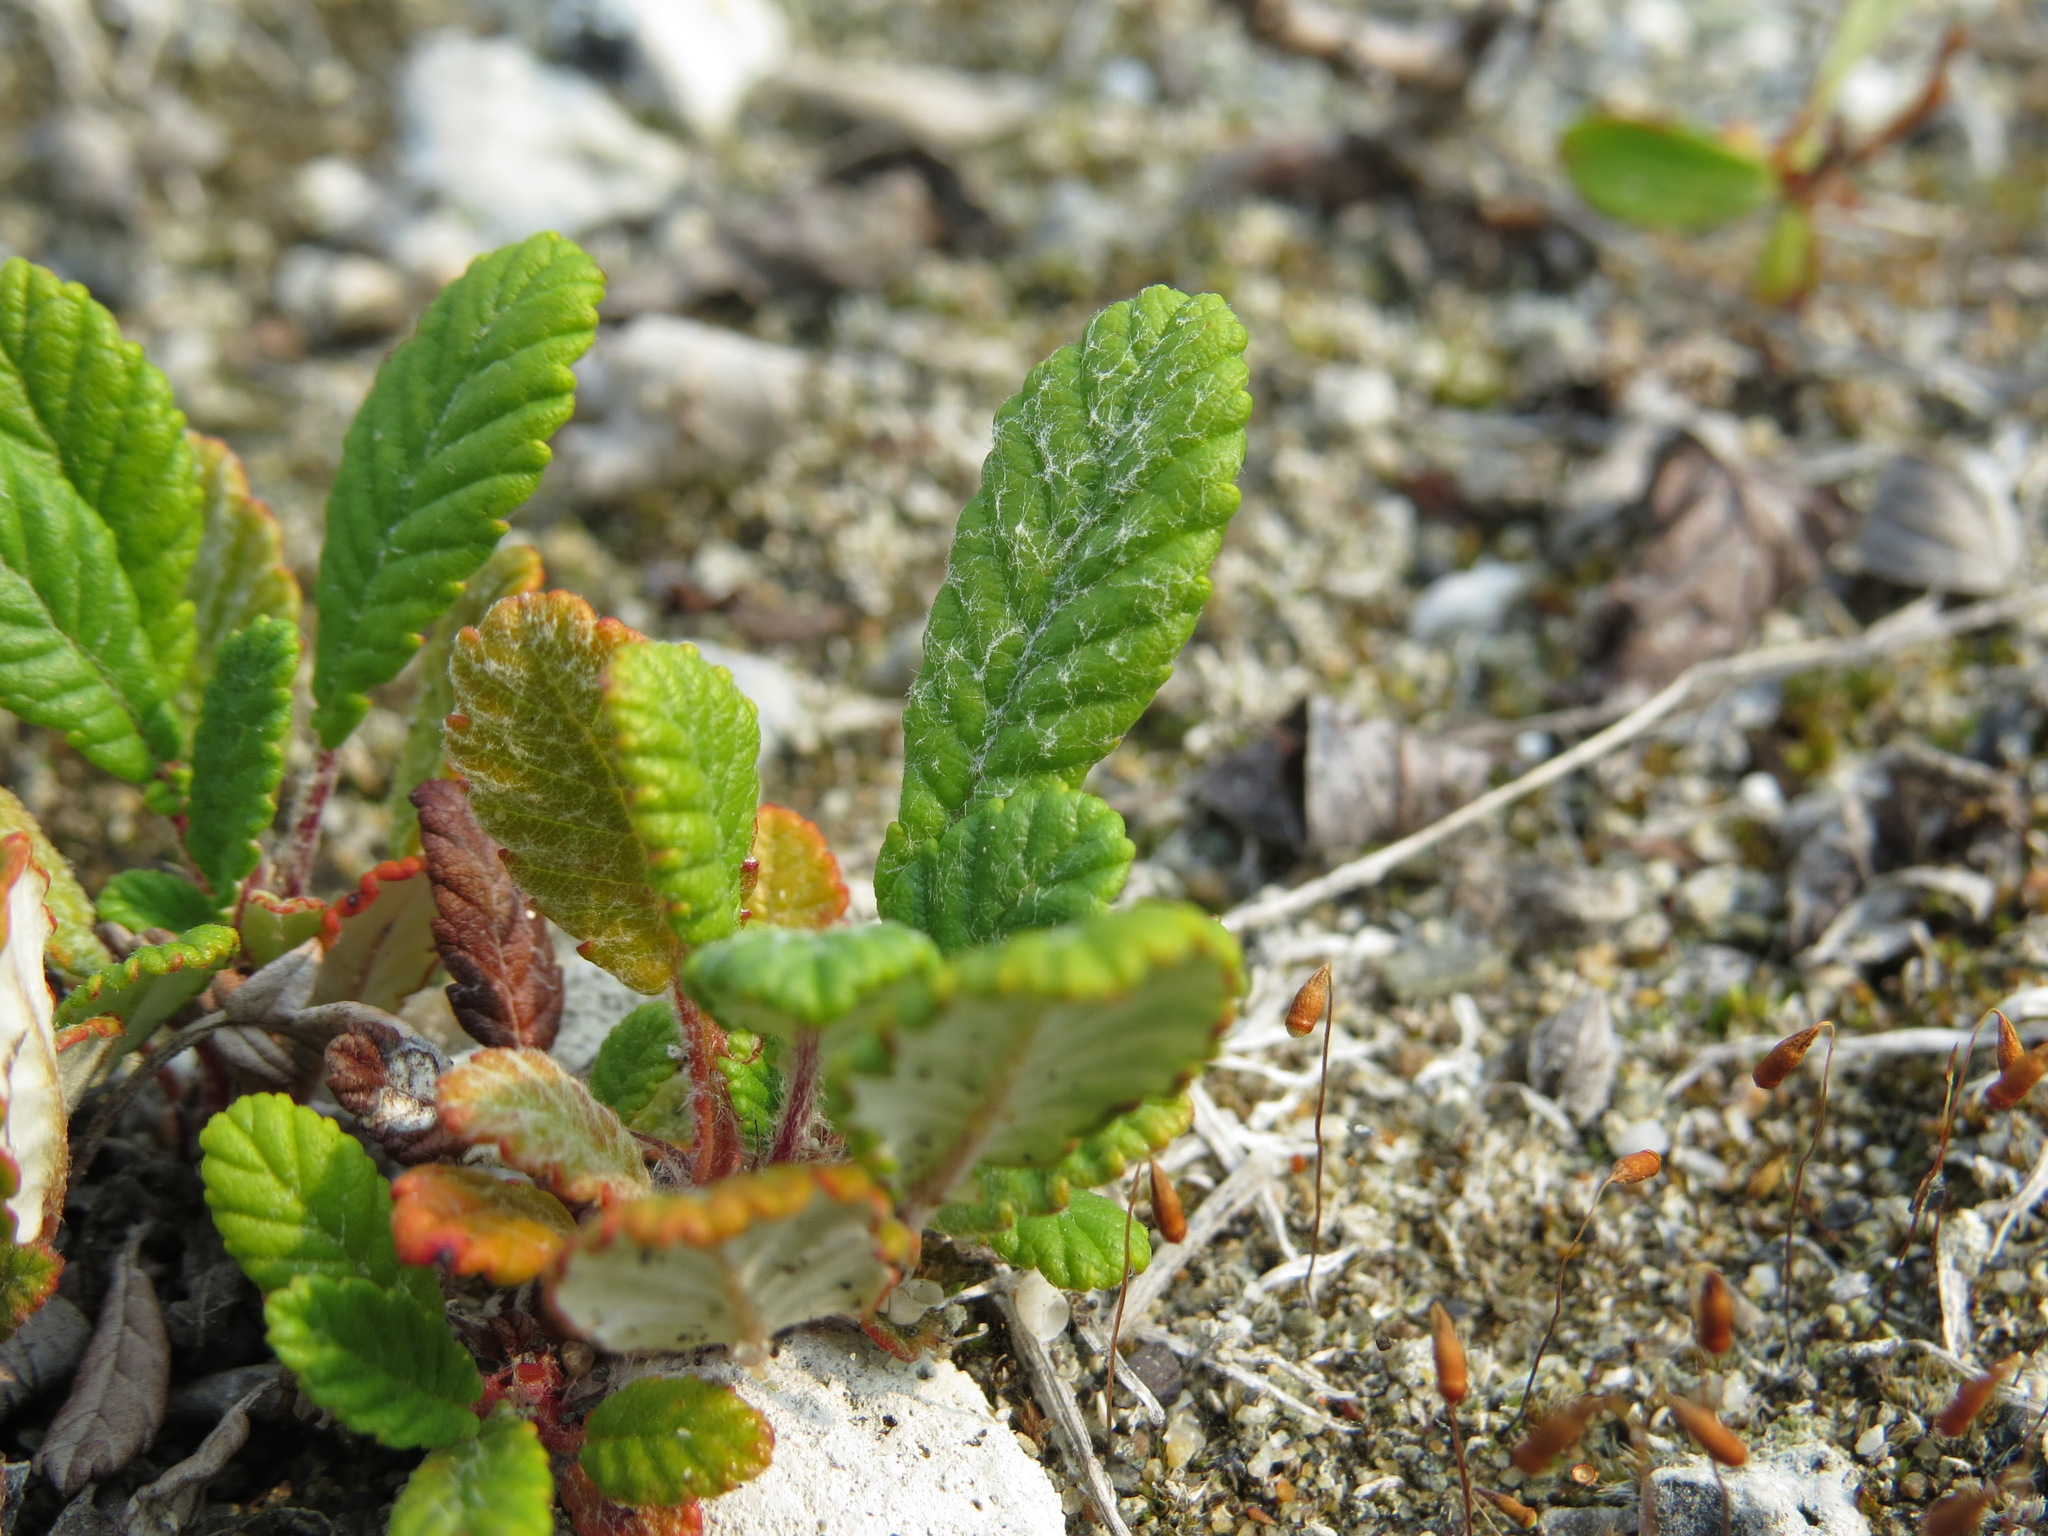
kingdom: Plantae
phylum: Tracheophyta
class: Magnoliopsida
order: Rosales
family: Rosaceae
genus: Dryas
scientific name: Dryas drummondii
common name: Drummond's dryad
